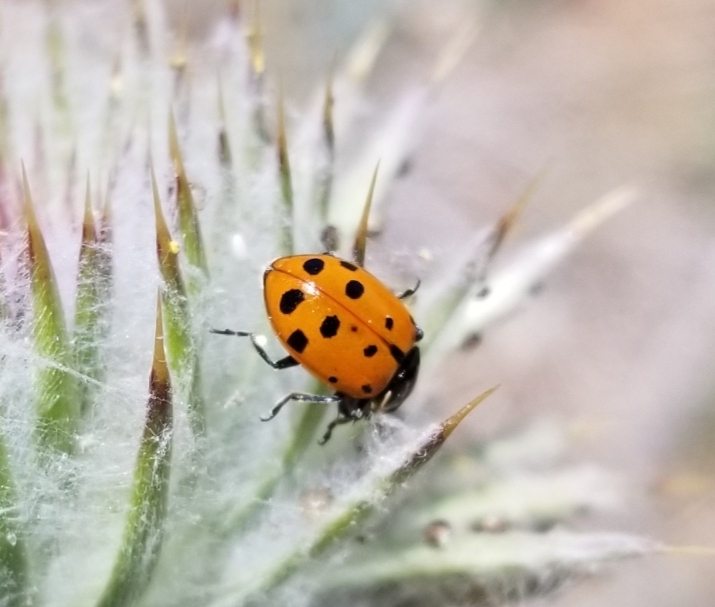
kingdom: Animalia
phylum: Arthropoda
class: Insecta
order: Coleoptera
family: Coccinellidae
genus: Hippodamia
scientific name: Hippodamia convergens
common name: Convergent lady beetle
